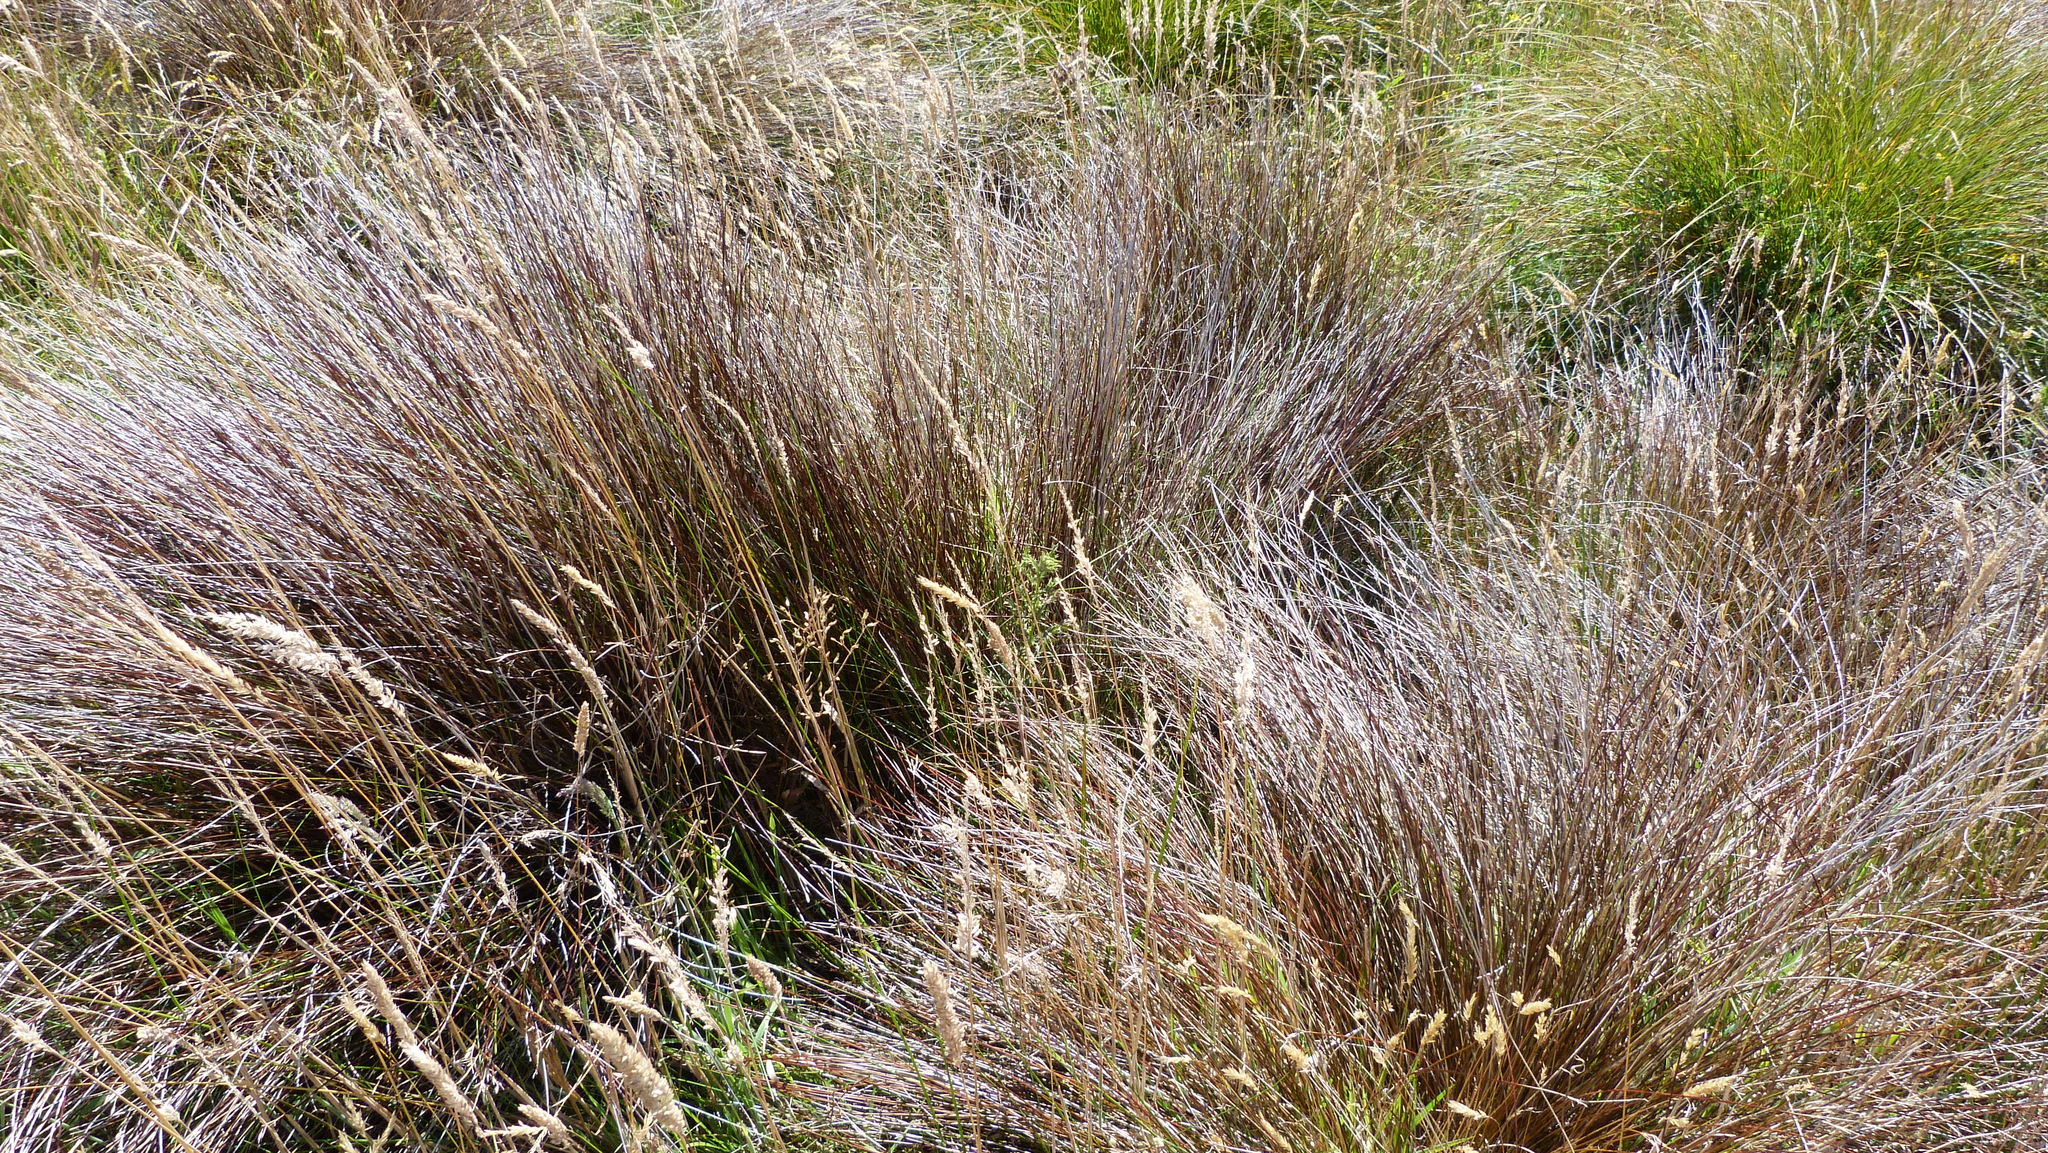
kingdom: Plantae
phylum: Tracheophyta
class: Liliopsida
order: Poales
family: Cyperaceae
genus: Schoenus
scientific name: Schoenus pauciflorus
